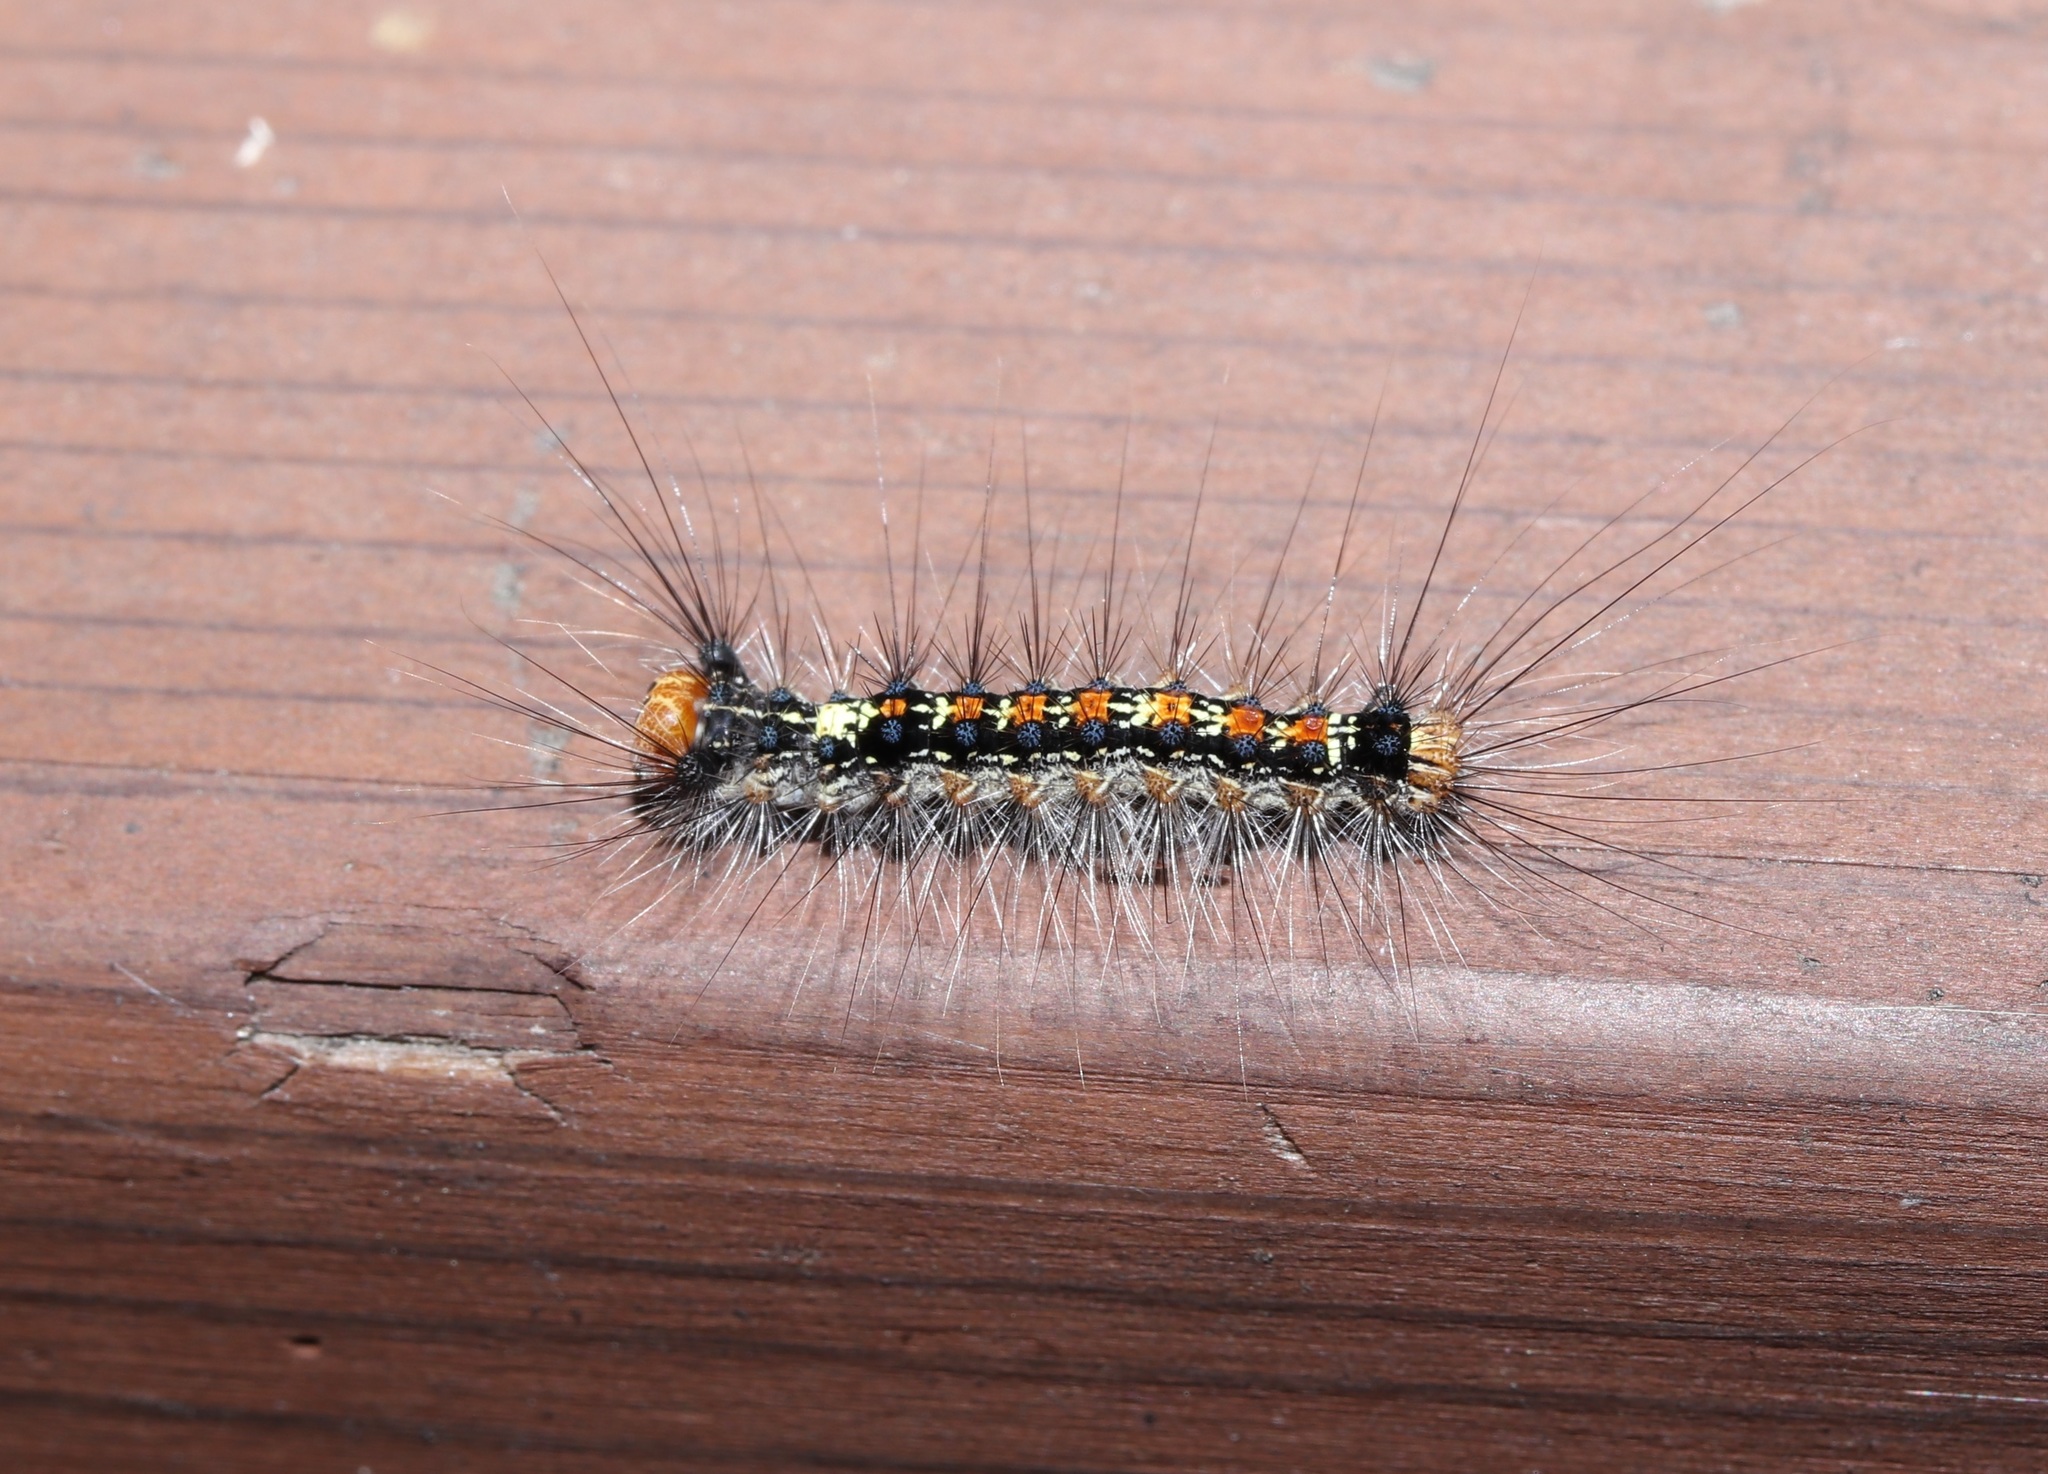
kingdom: Animalia
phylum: Arthropoda
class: Insecta
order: Lepidoptera
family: Erebidae
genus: Lymantria
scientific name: Lymantria dispar
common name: Gypsy moth
